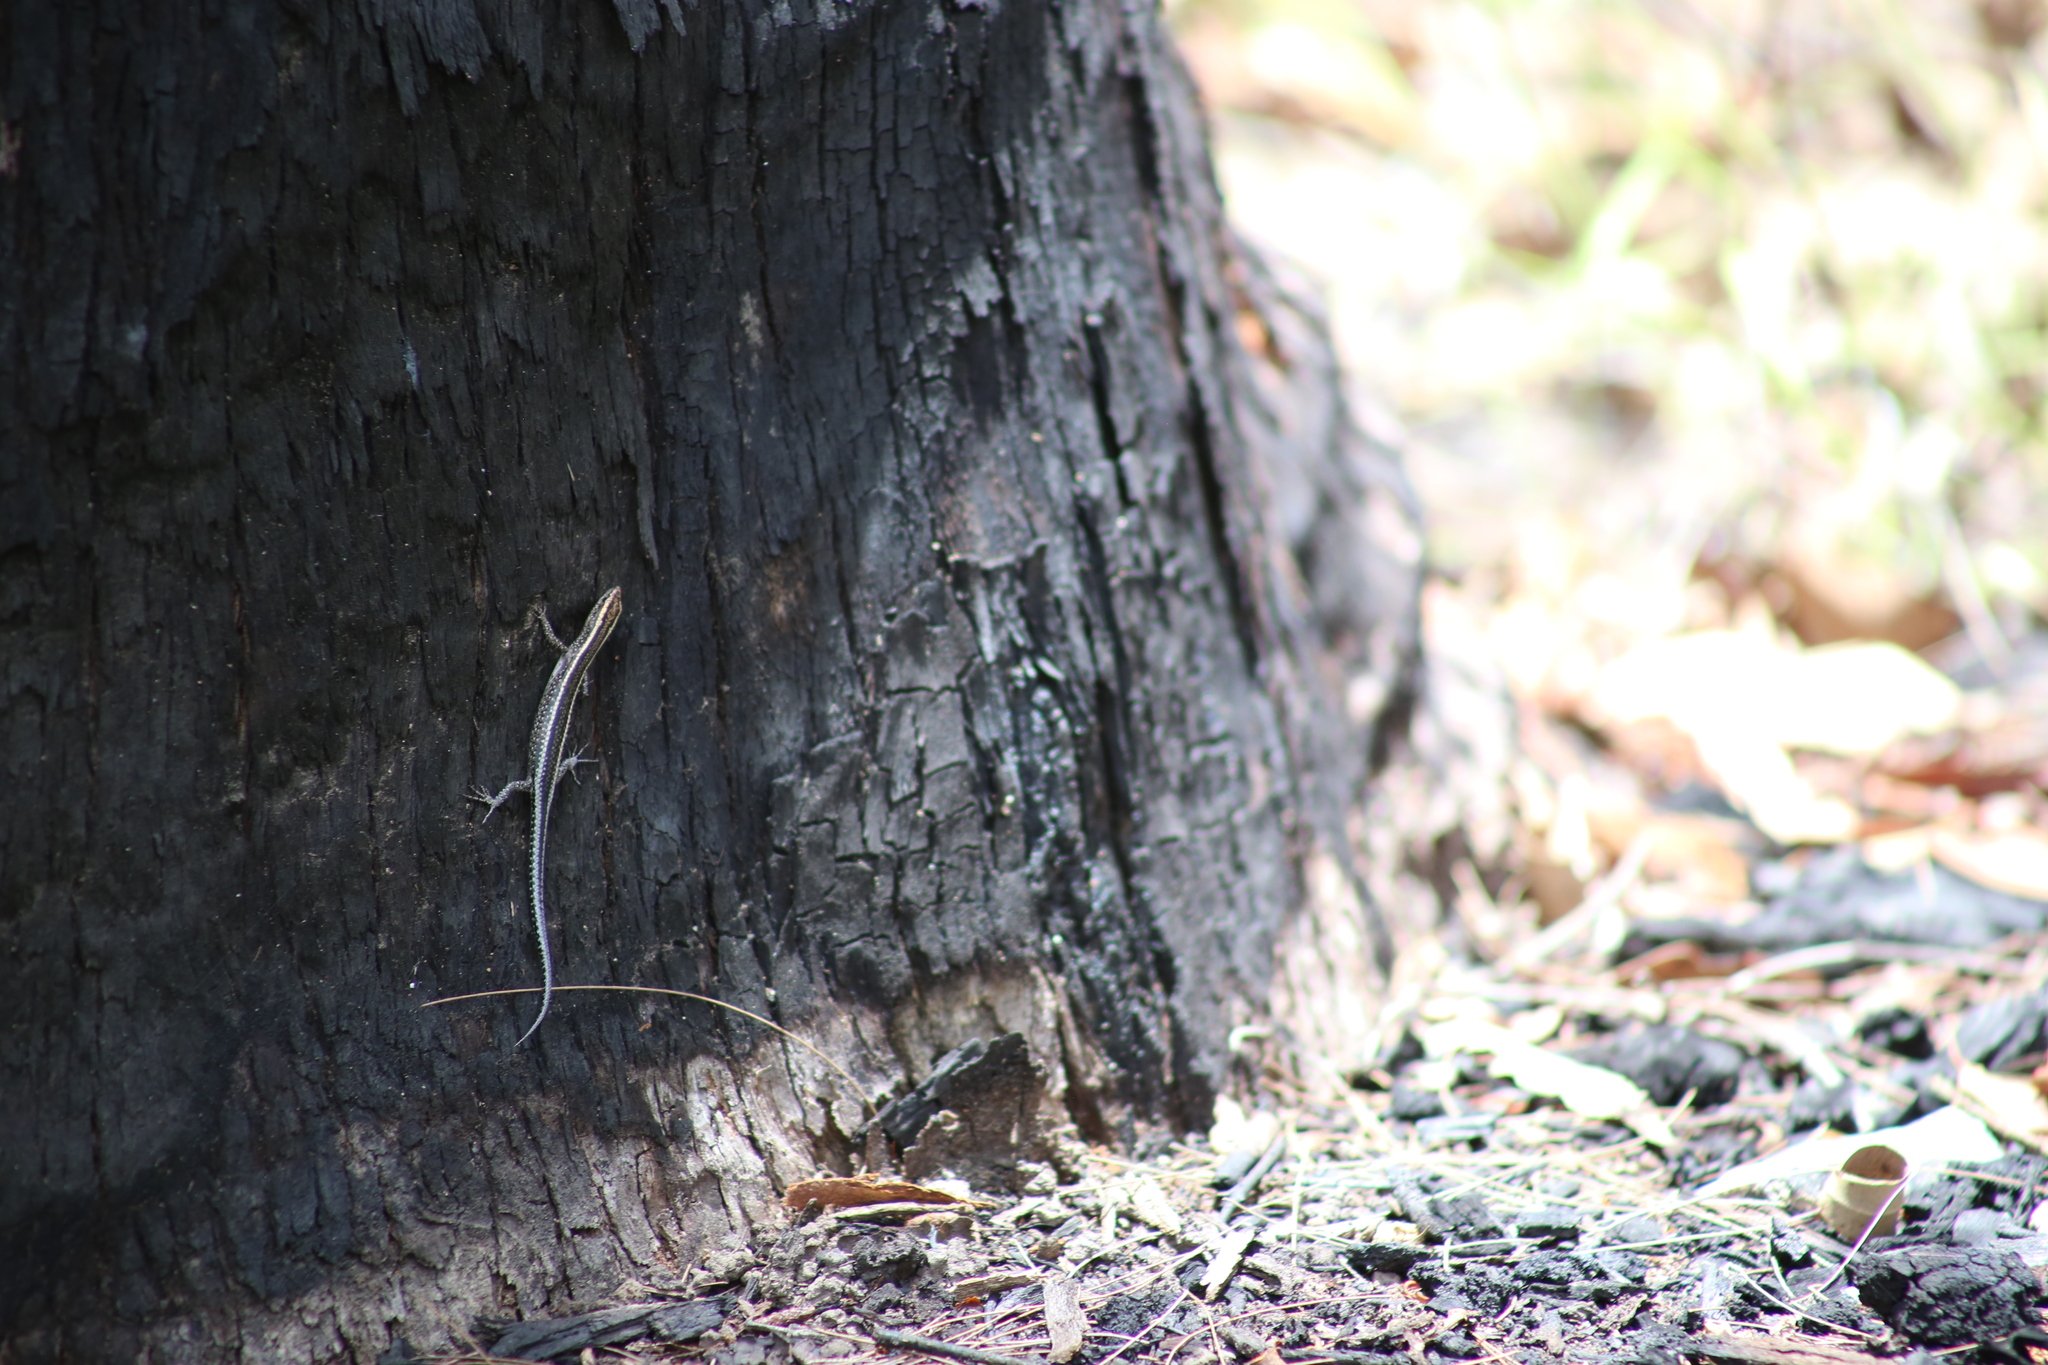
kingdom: Animalia
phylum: Chordata
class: Squamata
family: Scincidae
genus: Cryptoblepharus
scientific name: Cryptoblepharus pulcher
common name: Elegant snake-eyed skink
